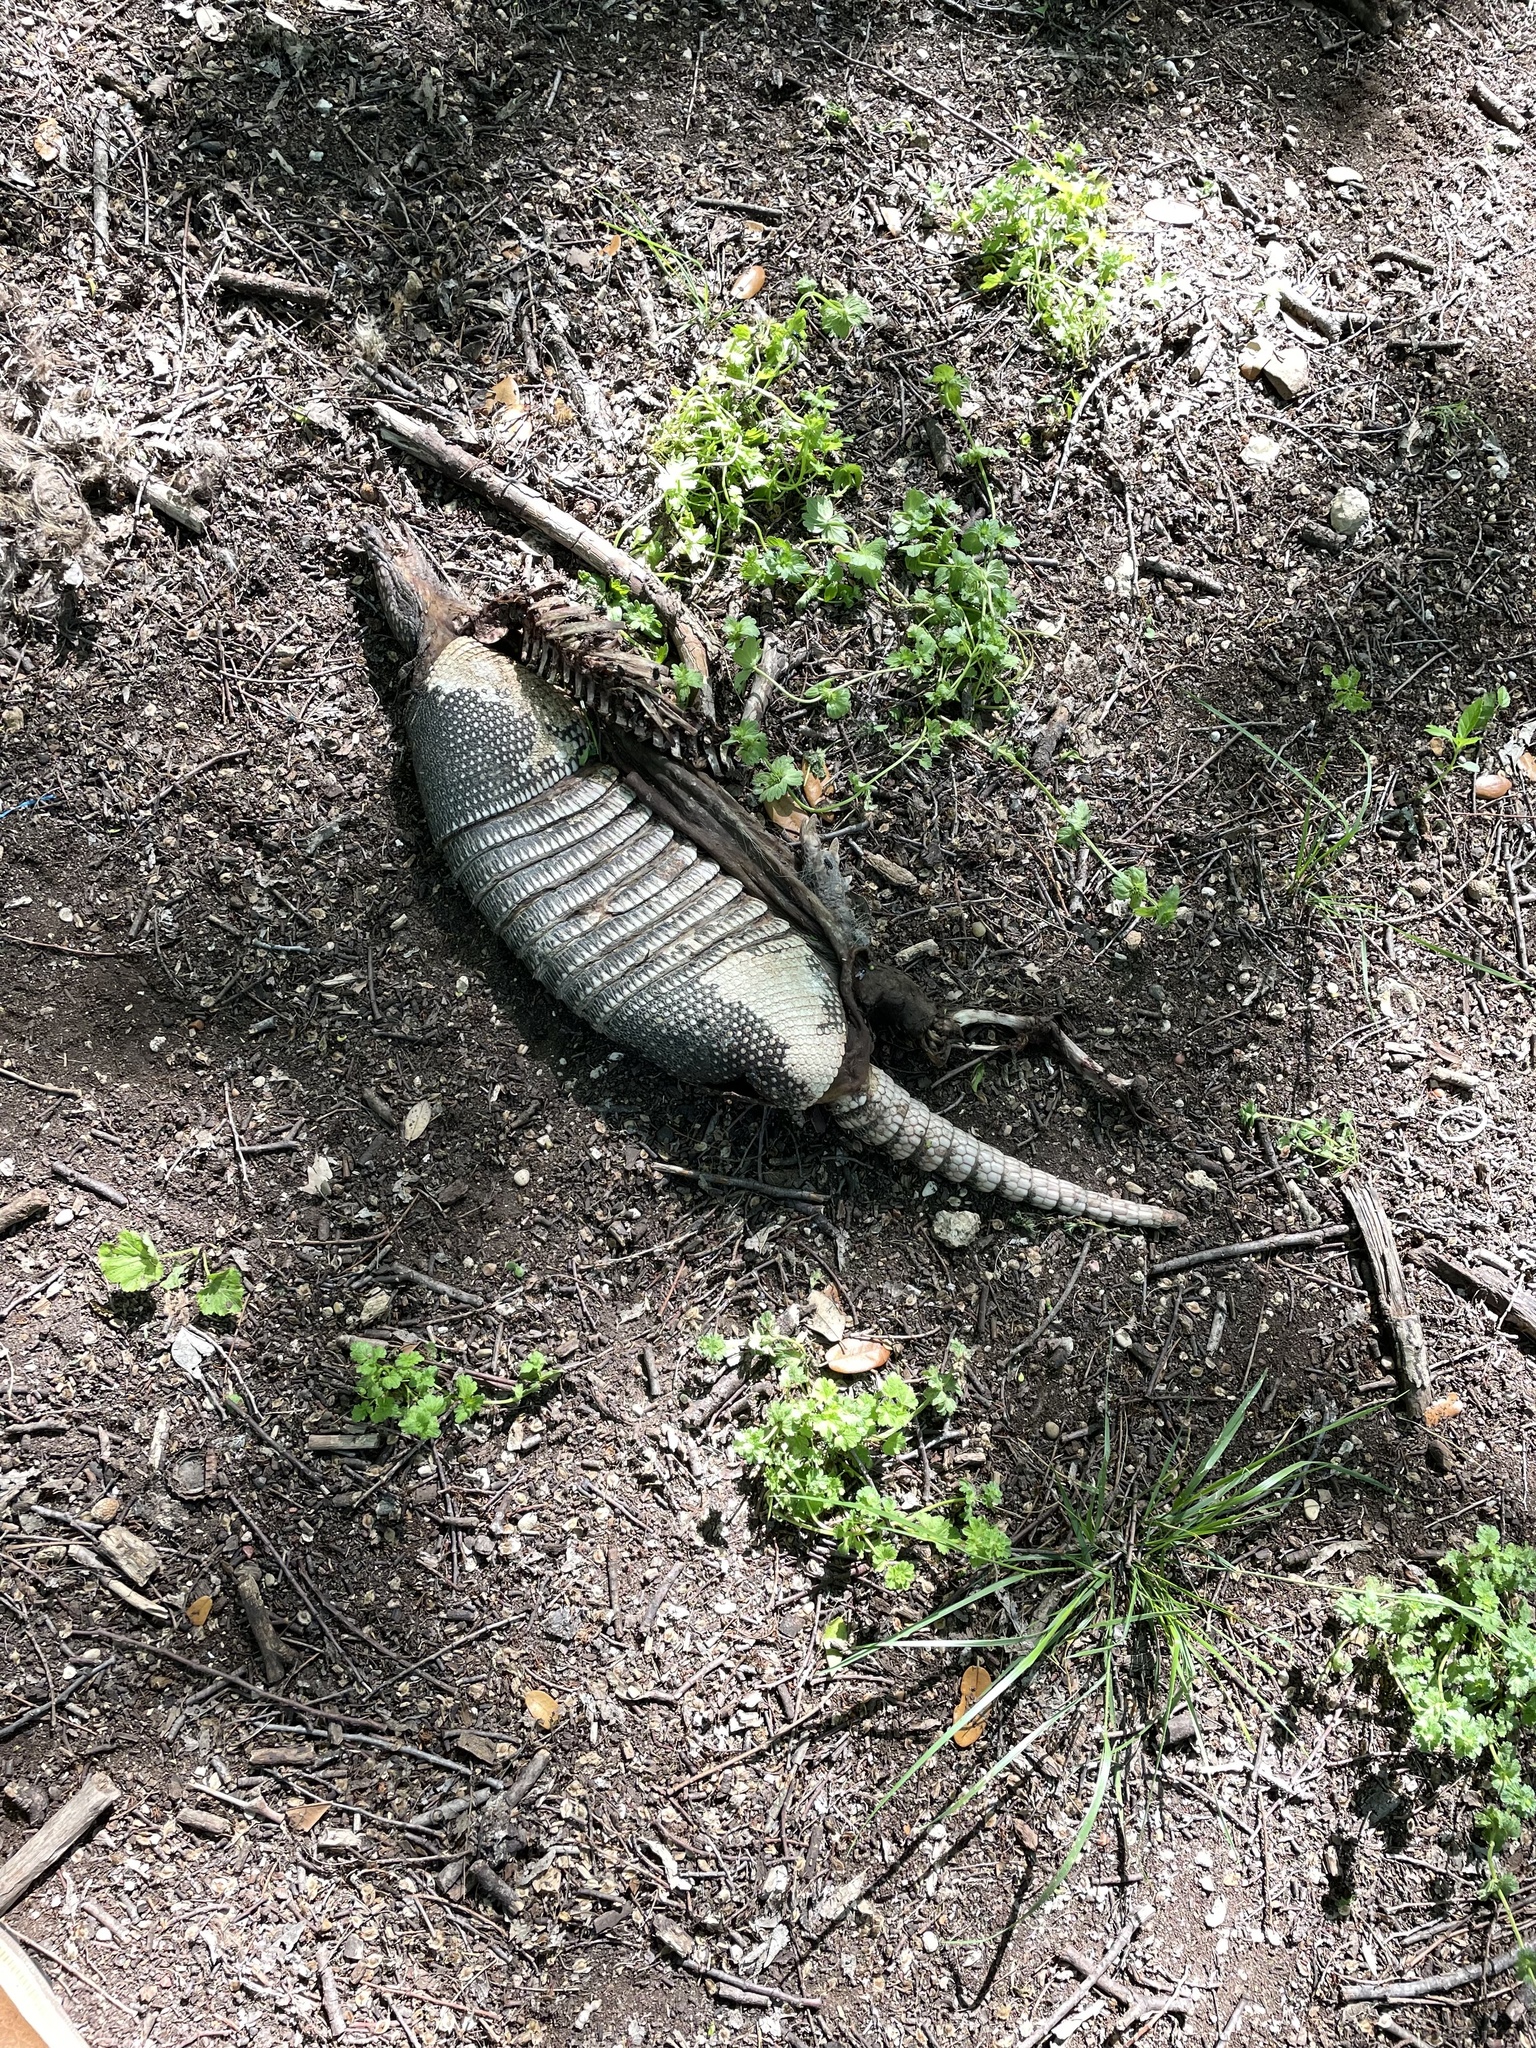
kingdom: Animalia
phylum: Chordata
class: Mammalia
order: Cingulata
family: Dasypodidae
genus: Dasypus
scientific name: Dasypus novemcinctus
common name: Nine-banded armadillo
